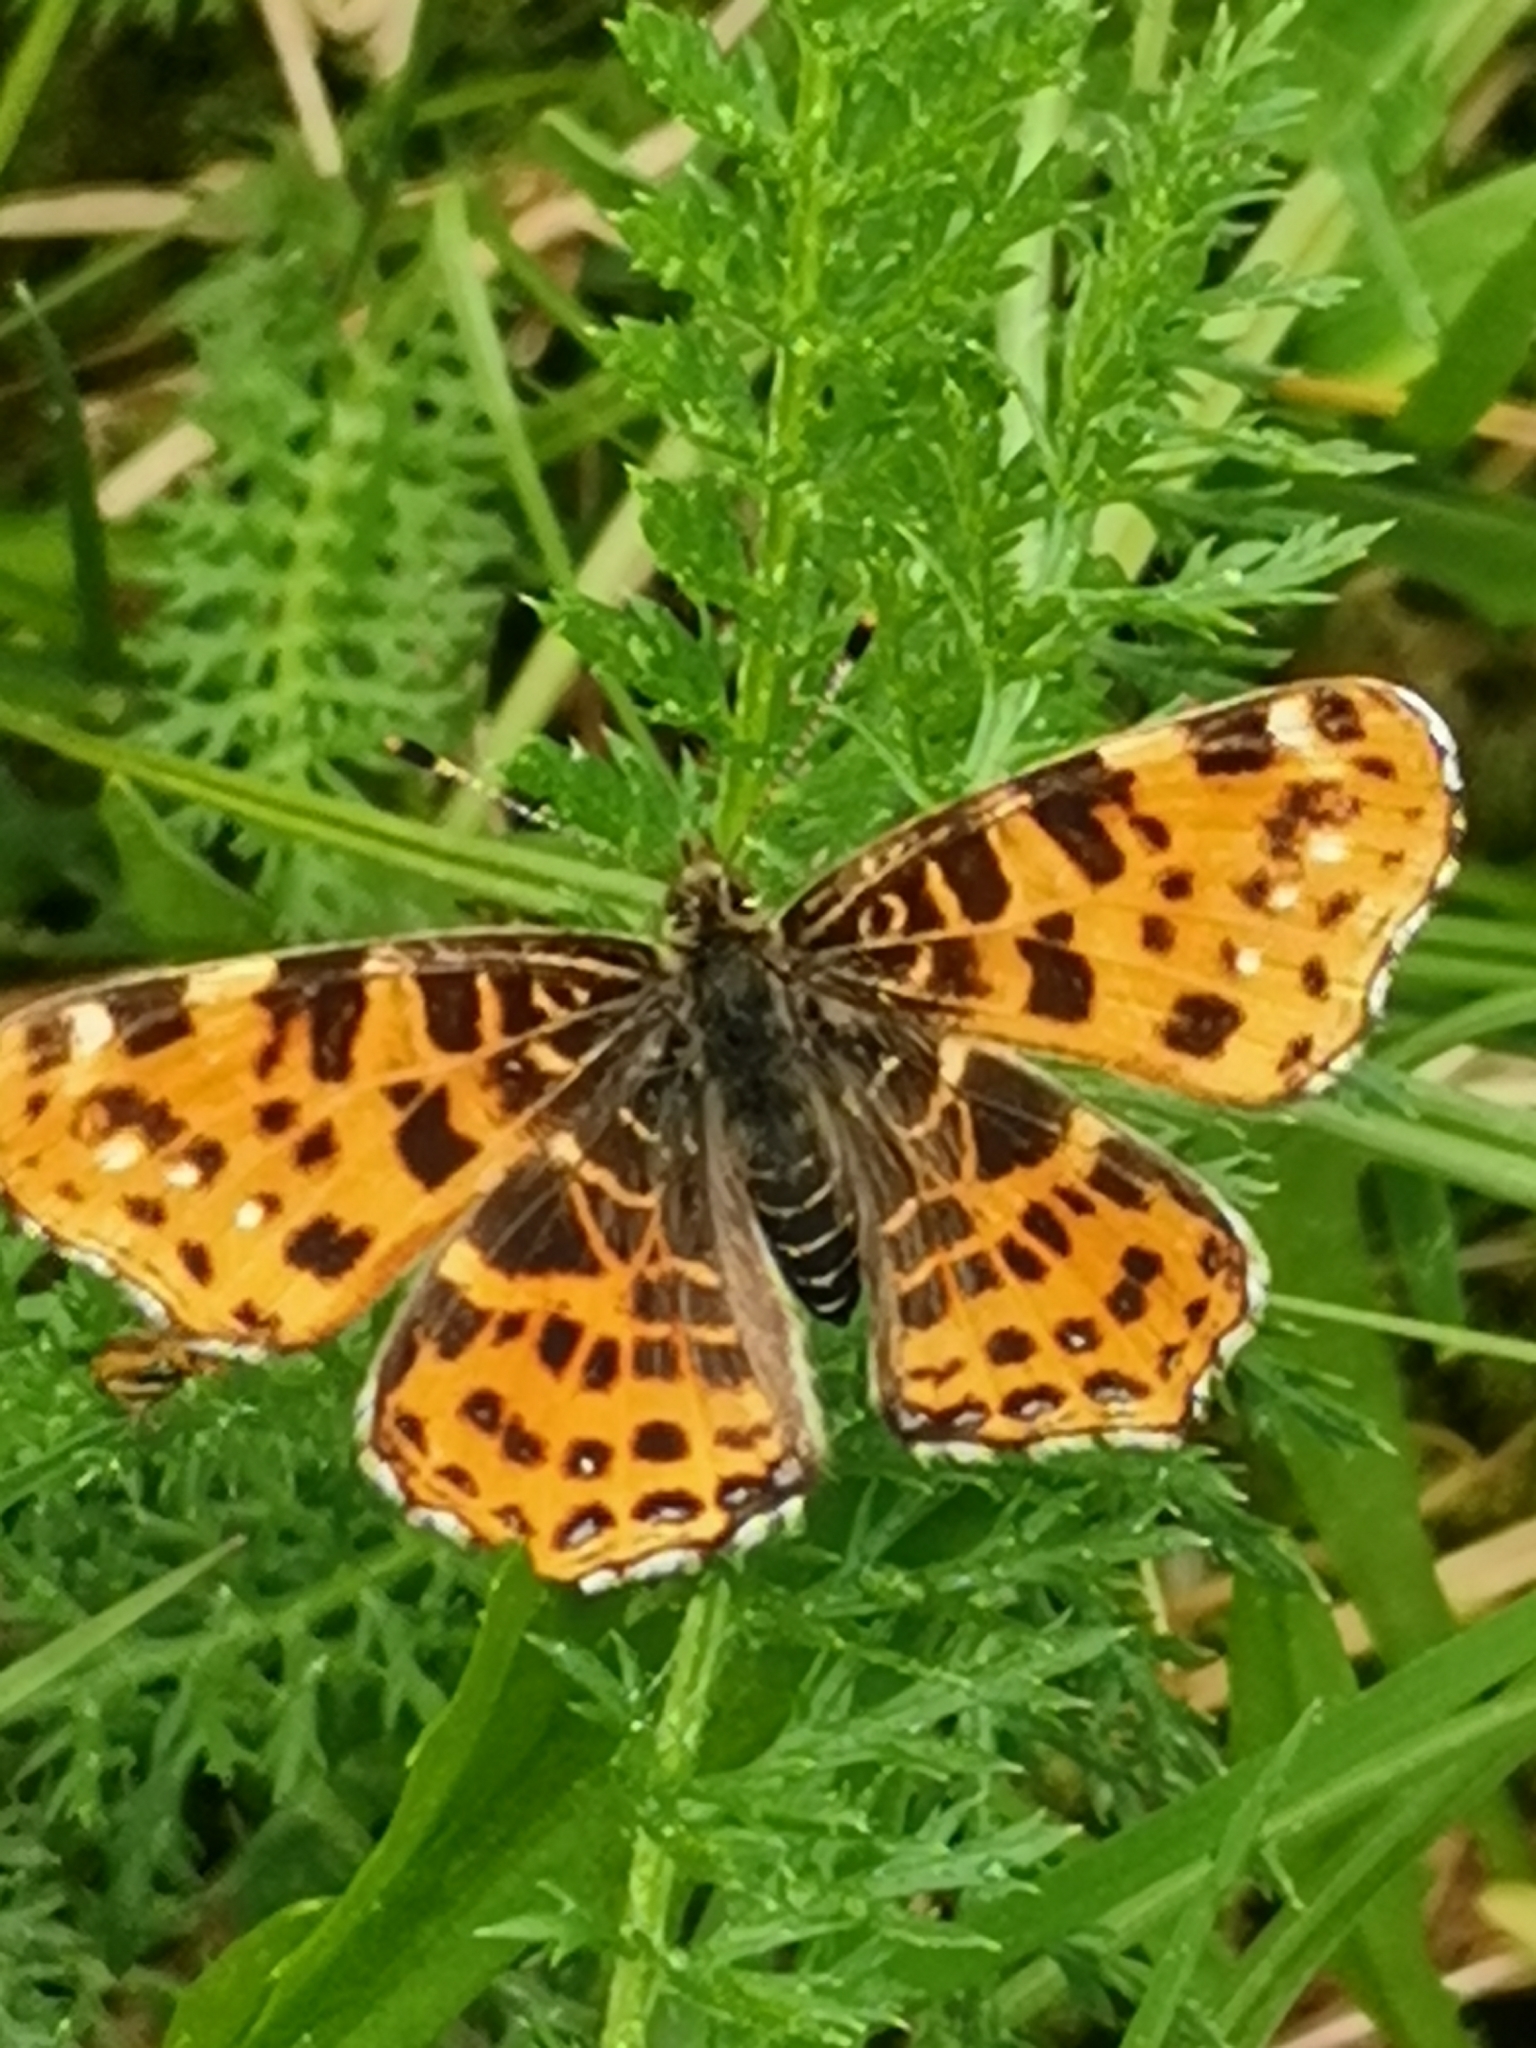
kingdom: Animalia
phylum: Arthropoda
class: Insecta
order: Lepidoptera
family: Nymphalidae
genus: Araschnia
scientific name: Araschnia levana
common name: Map butterfly
